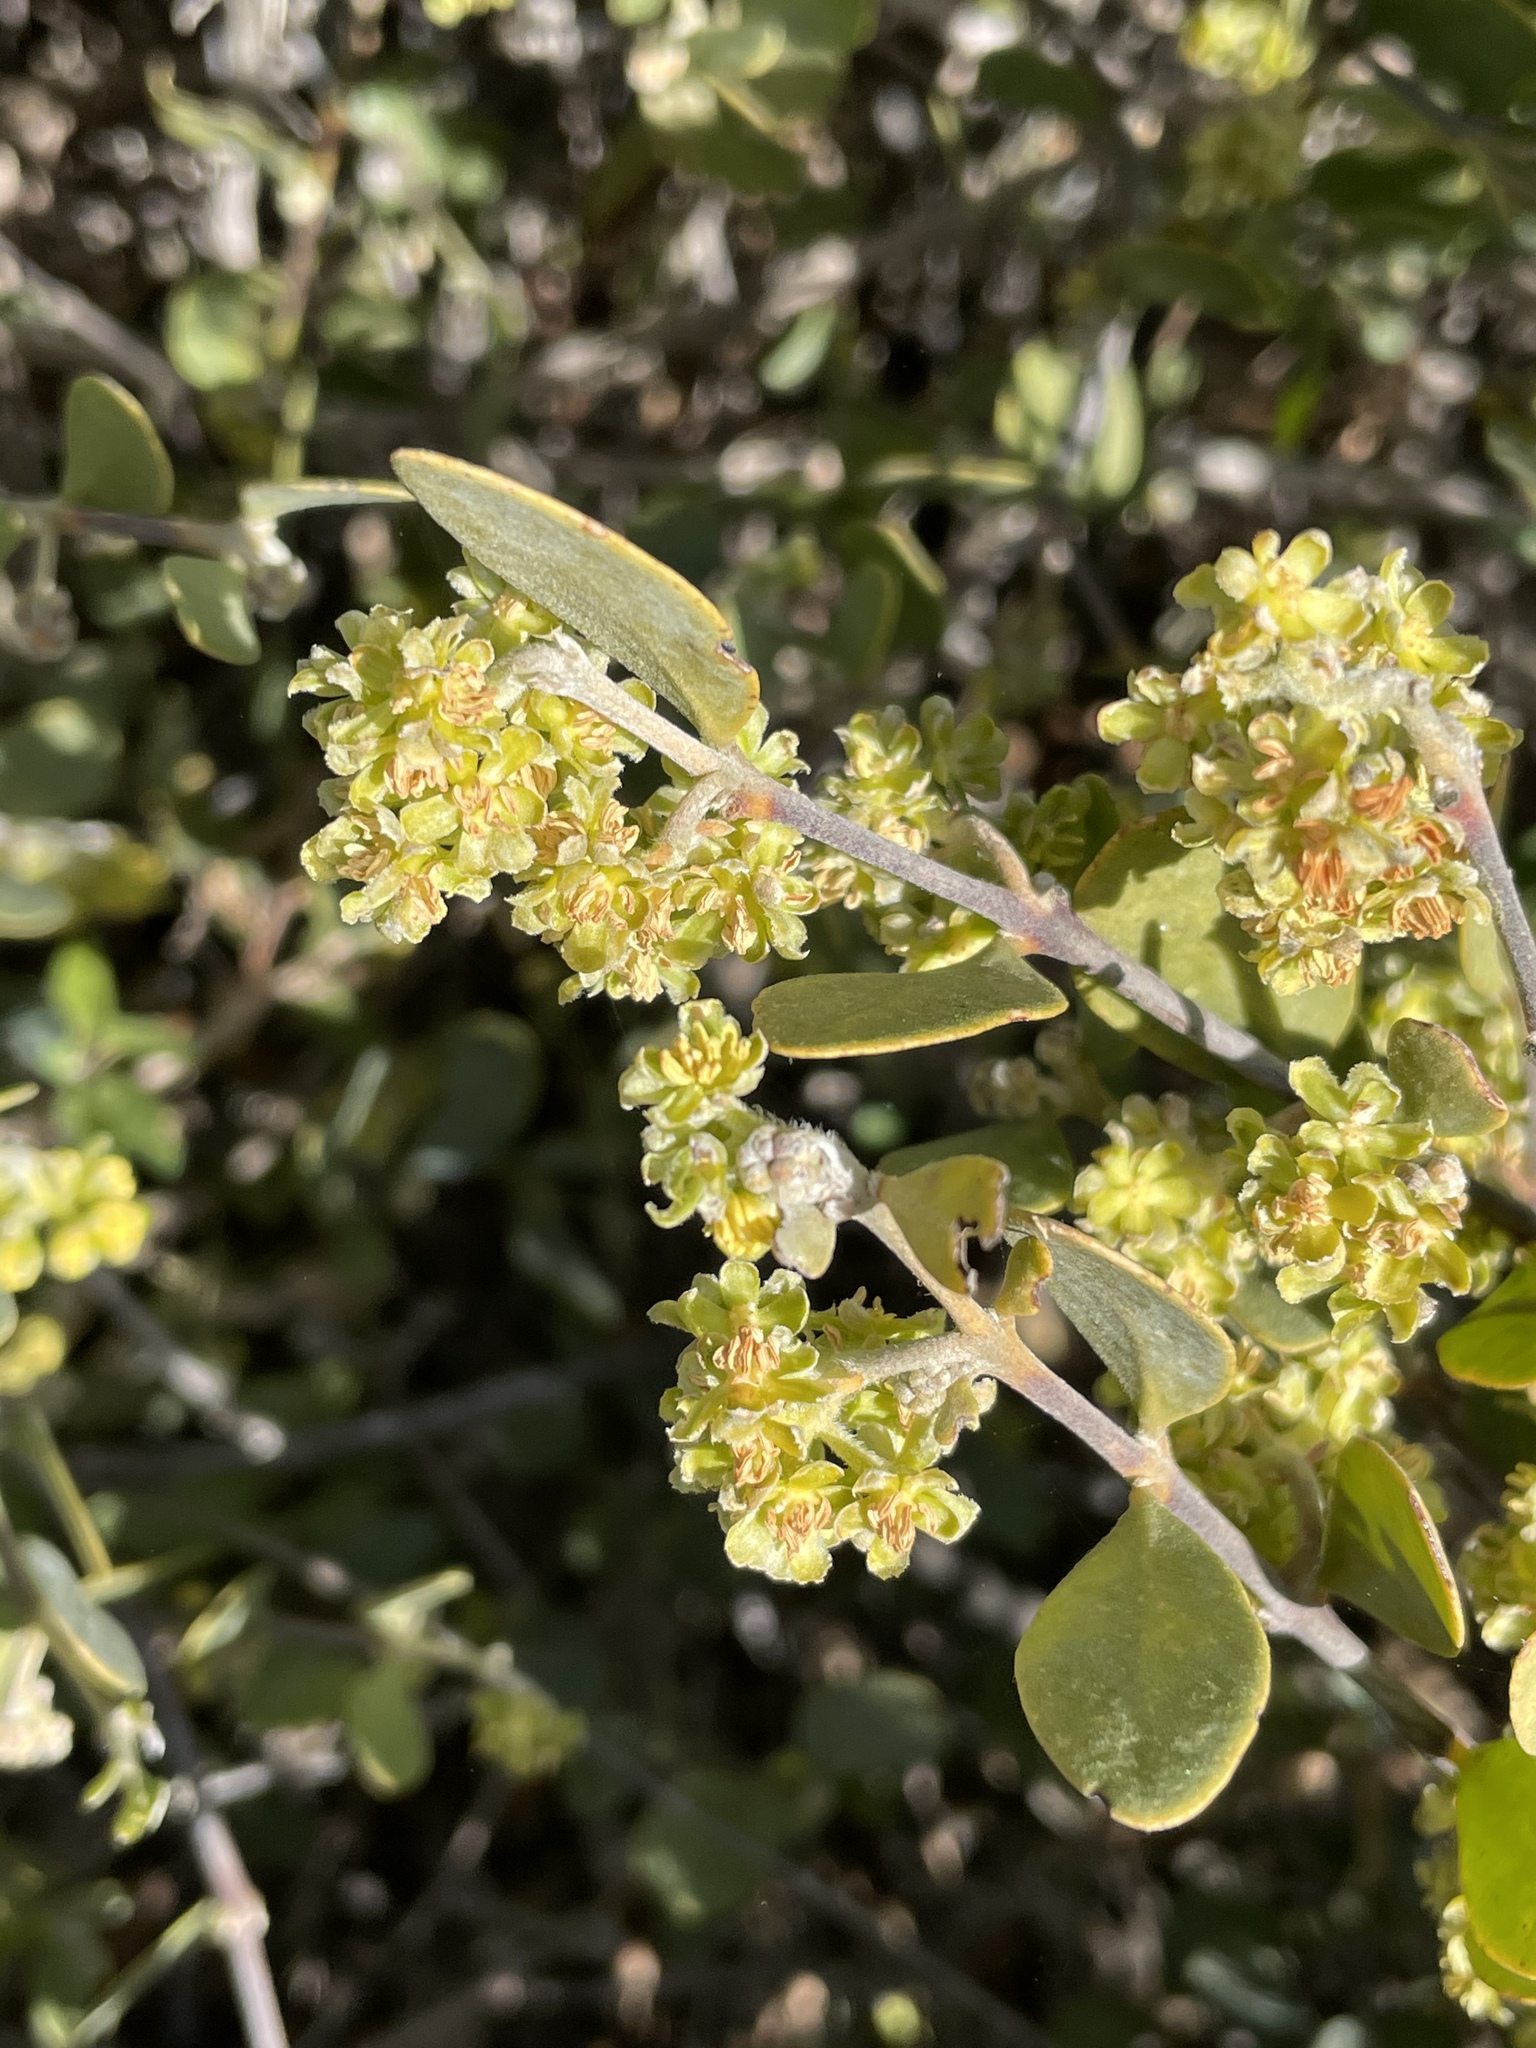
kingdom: Plantae
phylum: Tracheophyta
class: Magnoliopsida
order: Caryophyllales
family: Simmondsiaceae
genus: Simmondsia
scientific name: Simmondsia chinensis
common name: Jojoba
